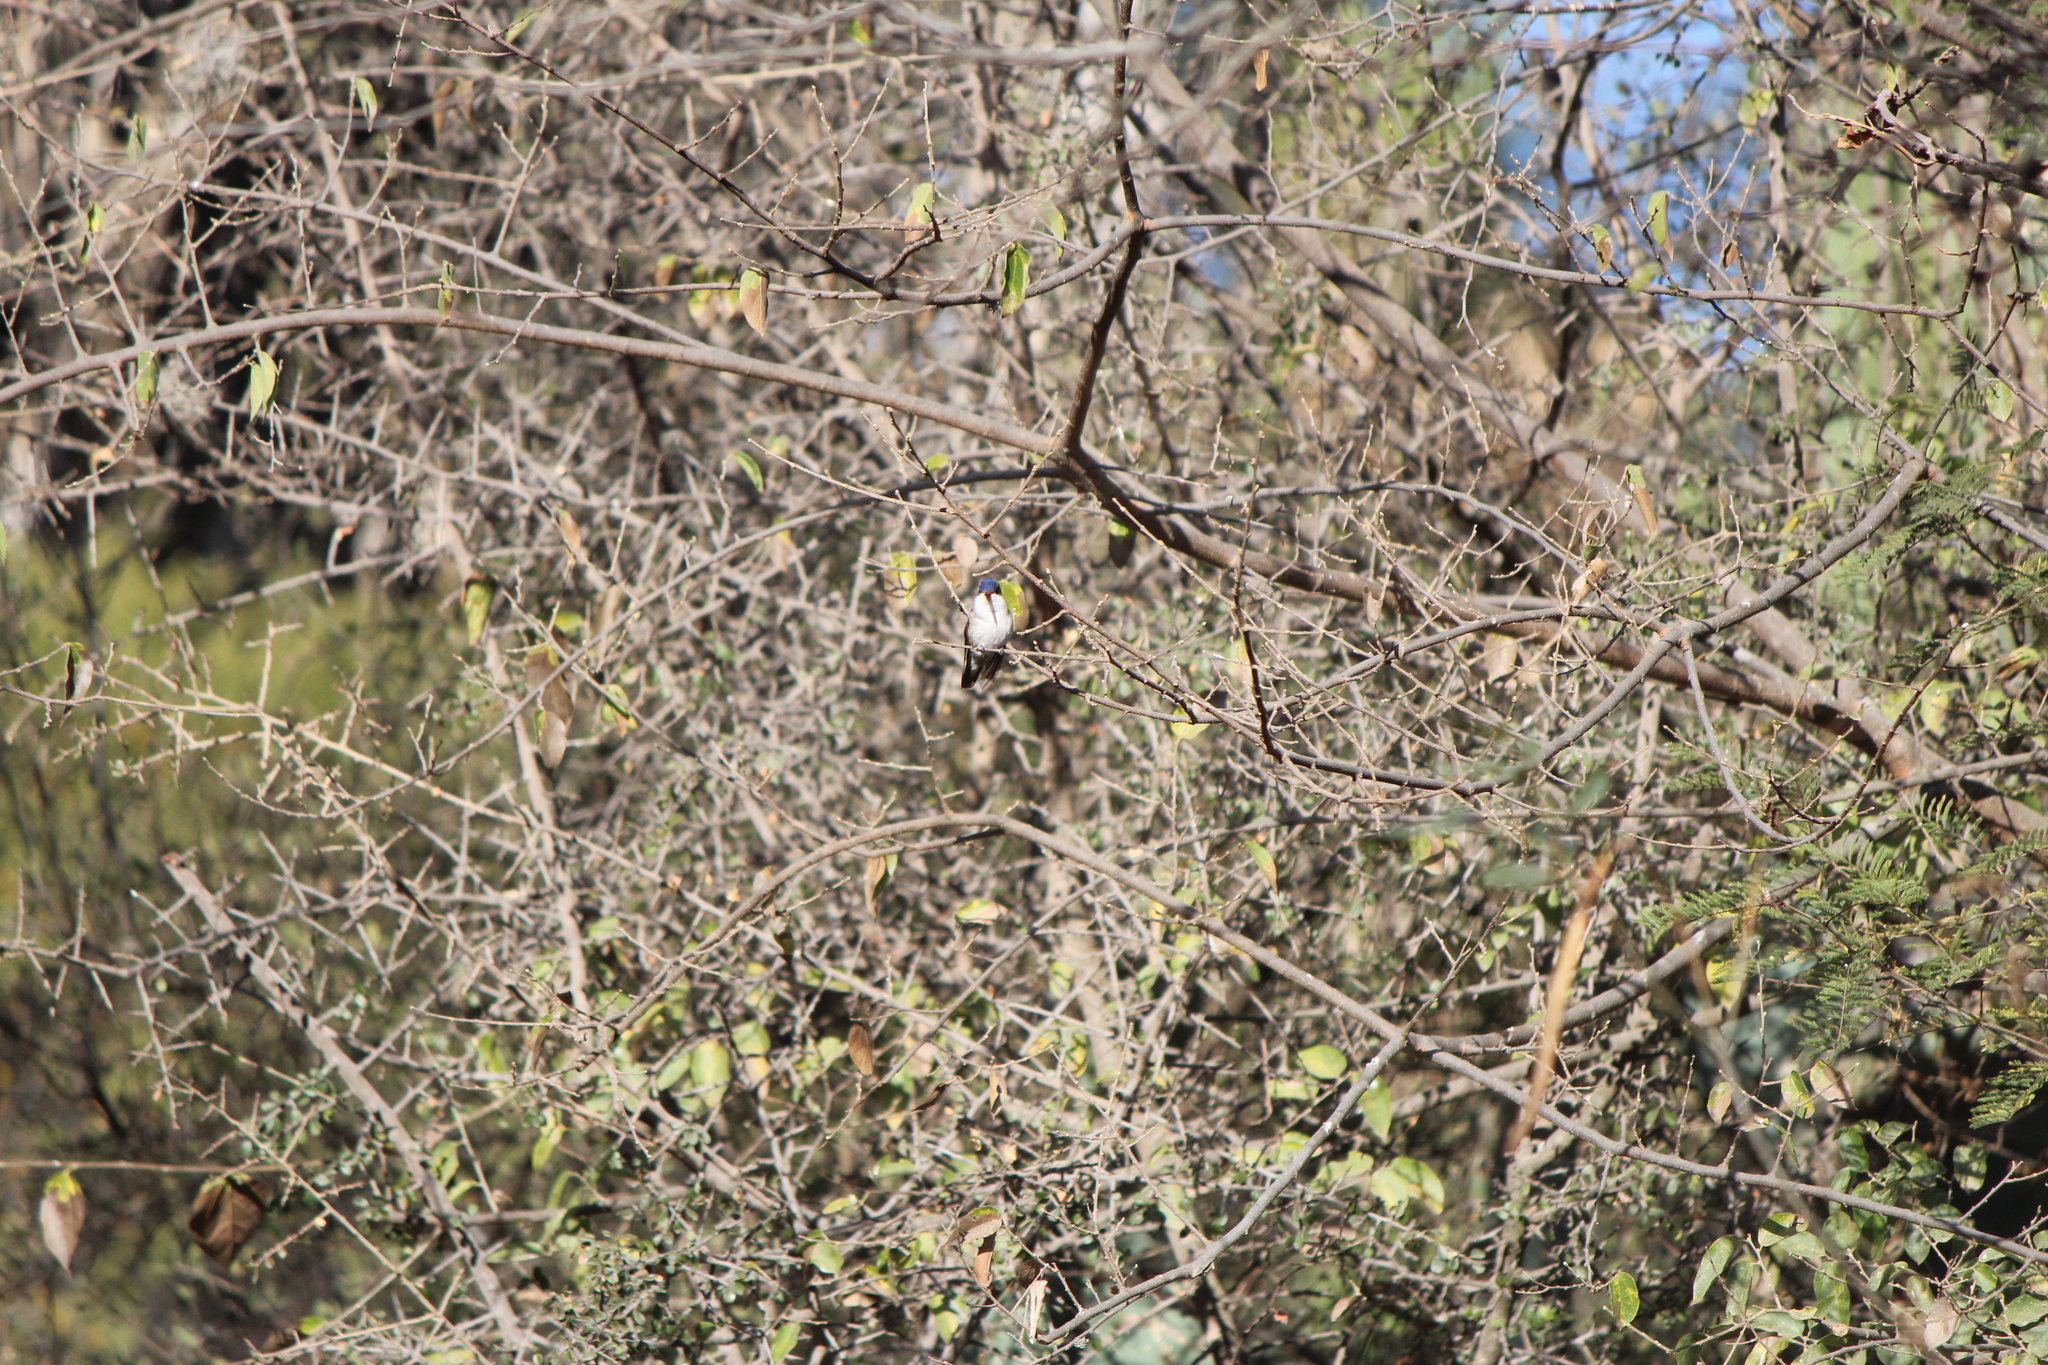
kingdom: Animalia
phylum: Chordata
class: Aves
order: Apodiformes
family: Trochilidae
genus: Leucolia
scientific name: Leucolia violiceps
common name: Violet-crowned hummingbird
